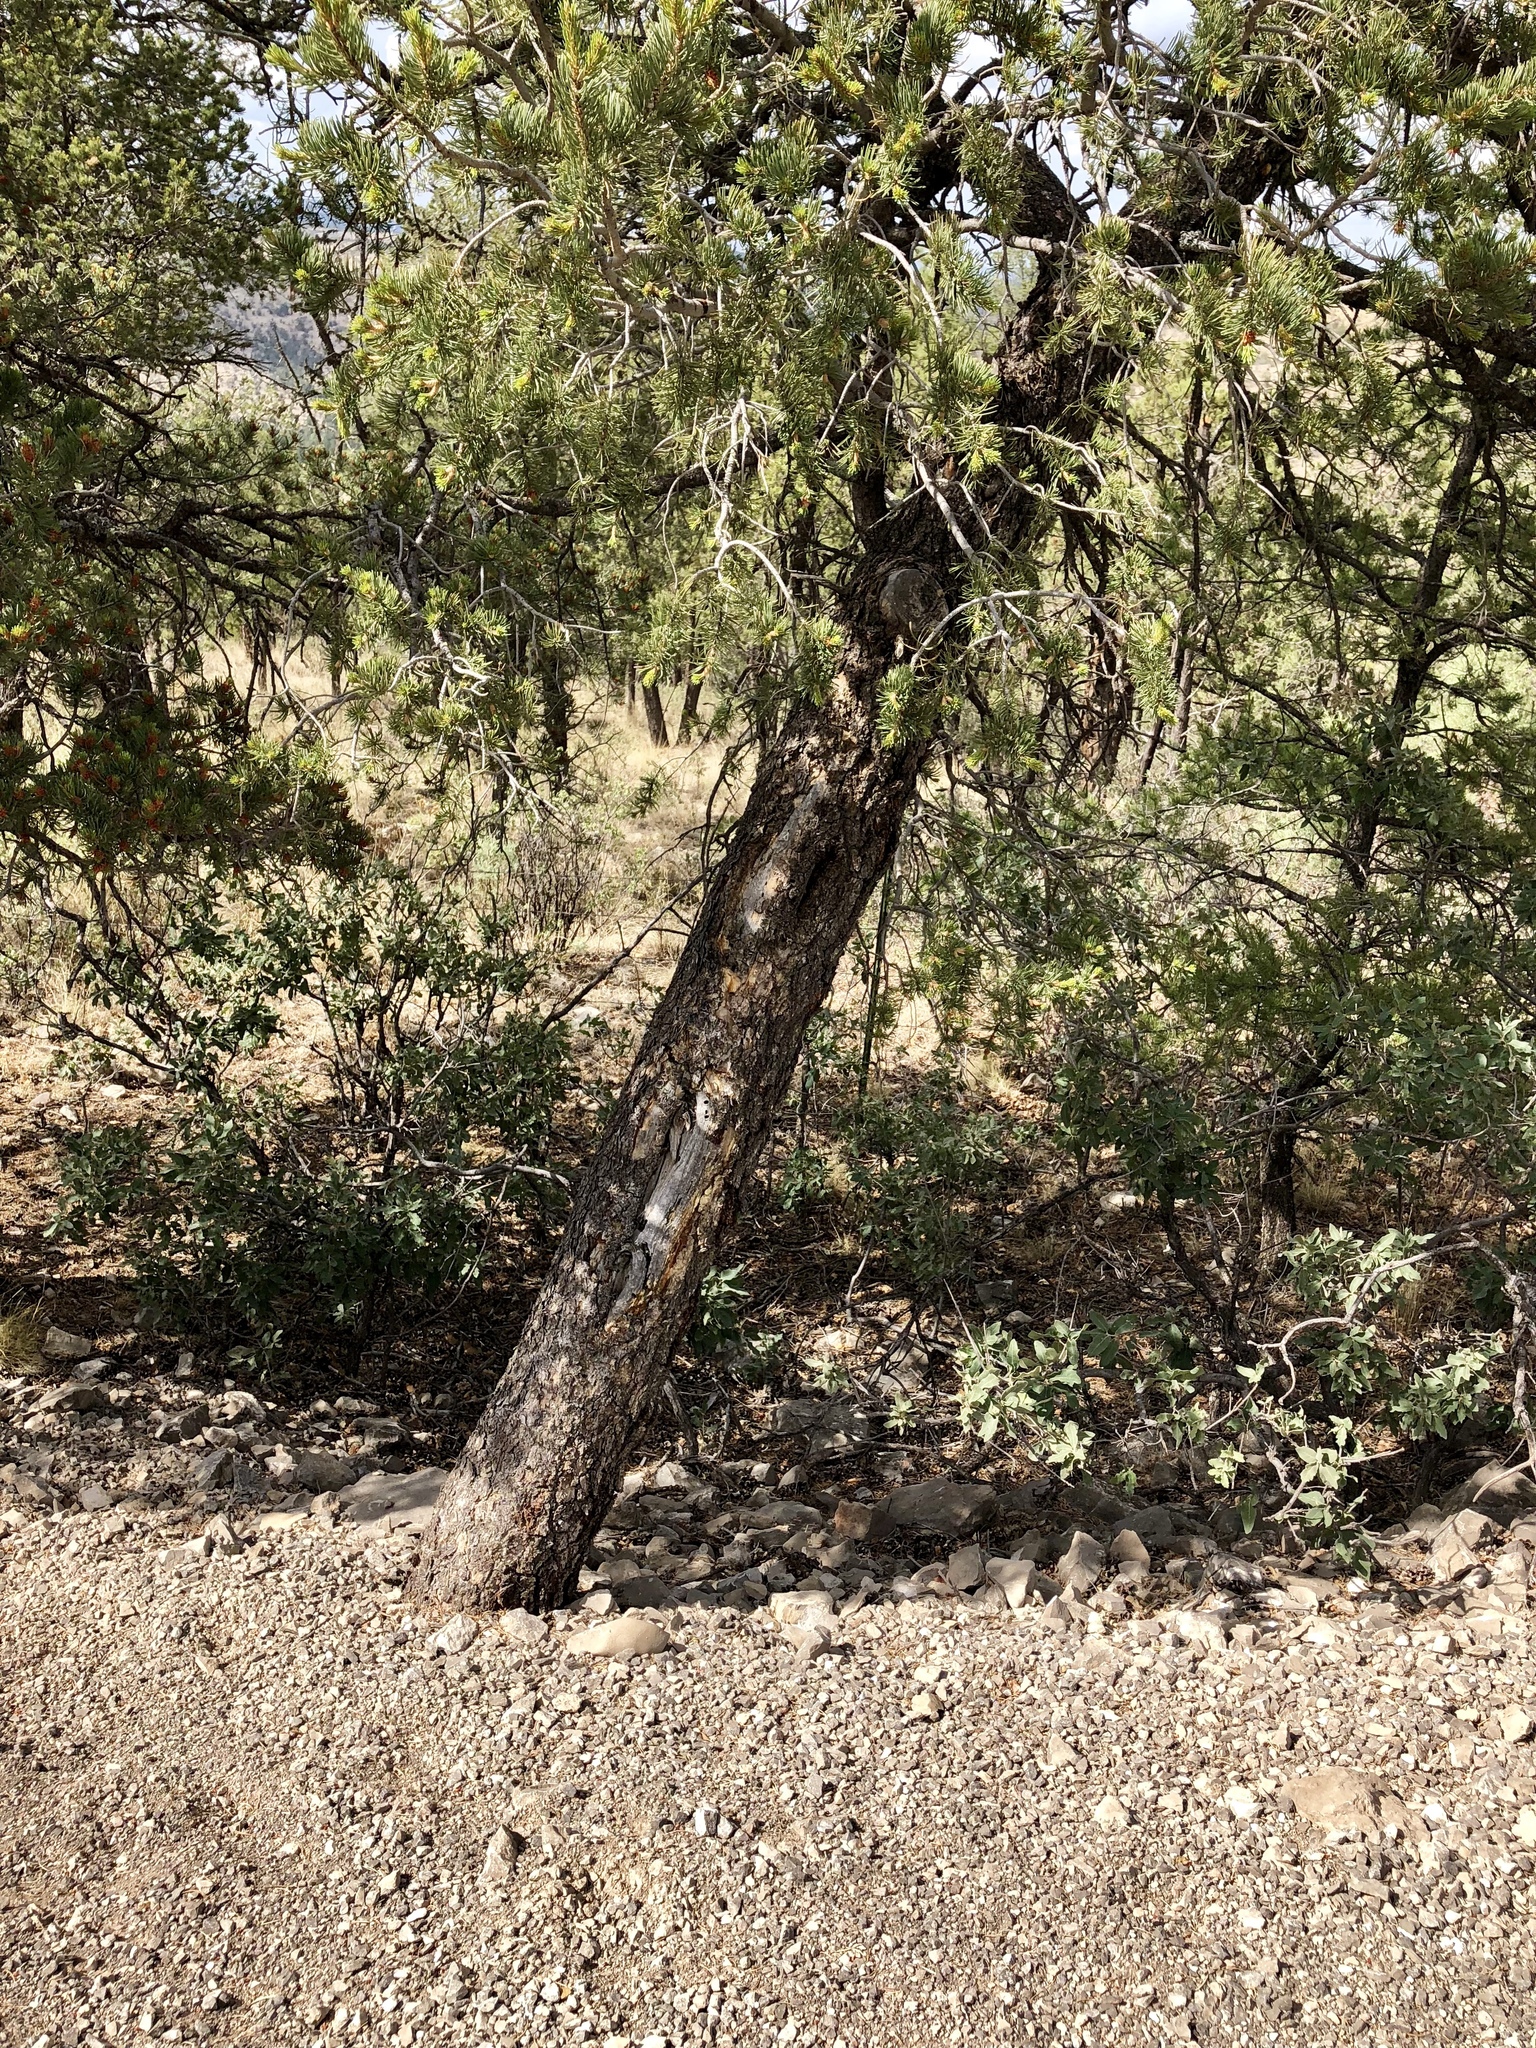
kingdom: Plantae
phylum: Tracheophyta
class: Pinopsida
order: Pinales
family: Pinaceae
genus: Pinus
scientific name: Pinus edulis
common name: Colorado pinyon
